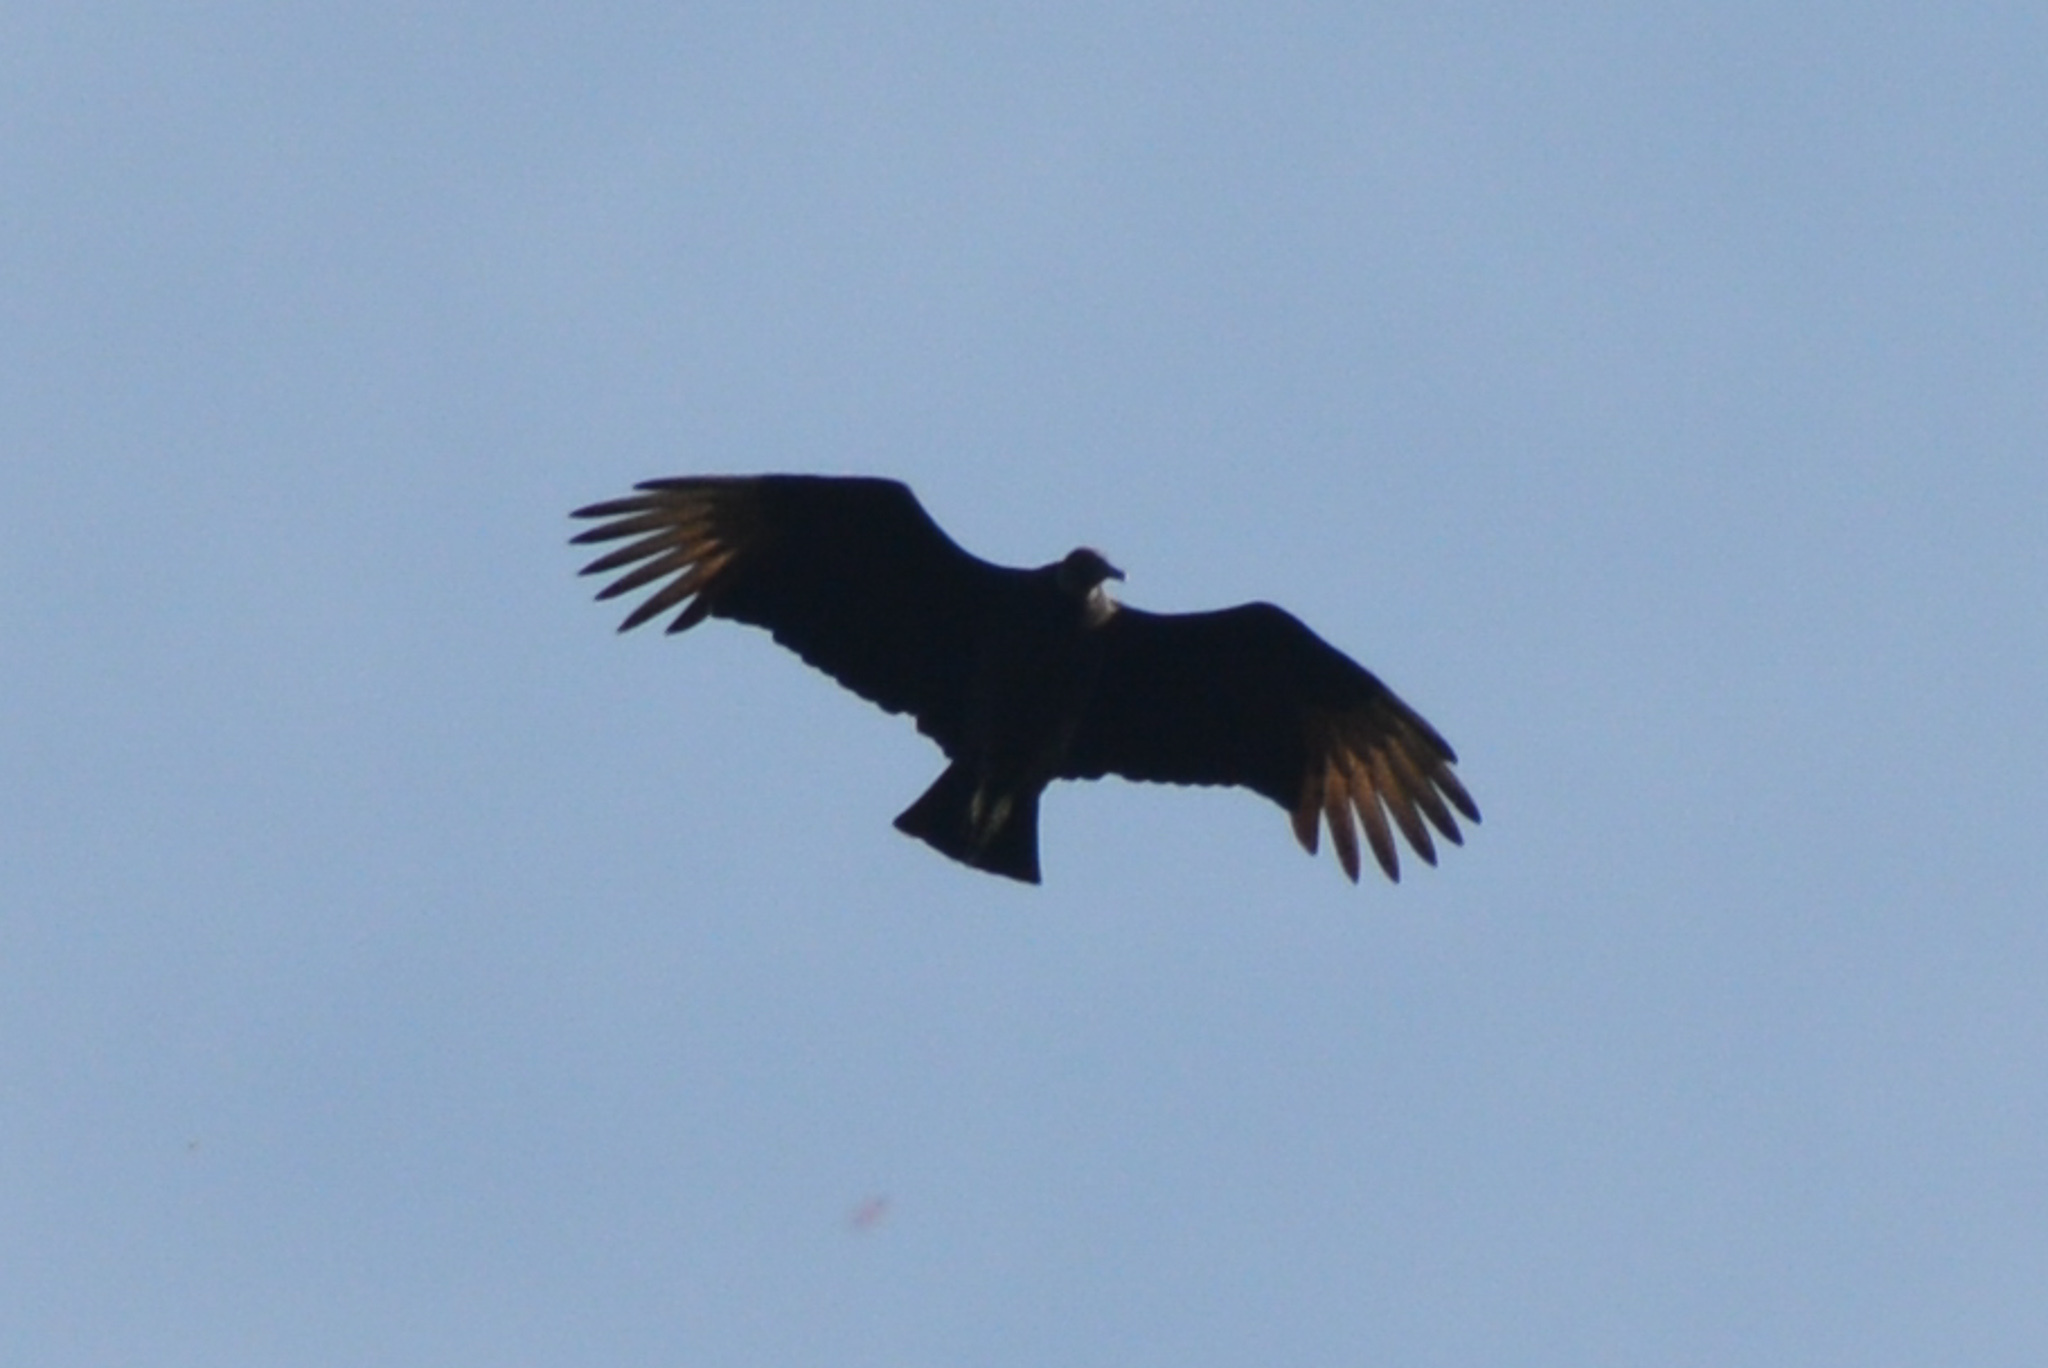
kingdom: Animalia
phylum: Chordata
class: Aves
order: Accipitriformes
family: Cathartidae
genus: Coragyps
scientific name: Coragyps atratus
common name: Black vulture
